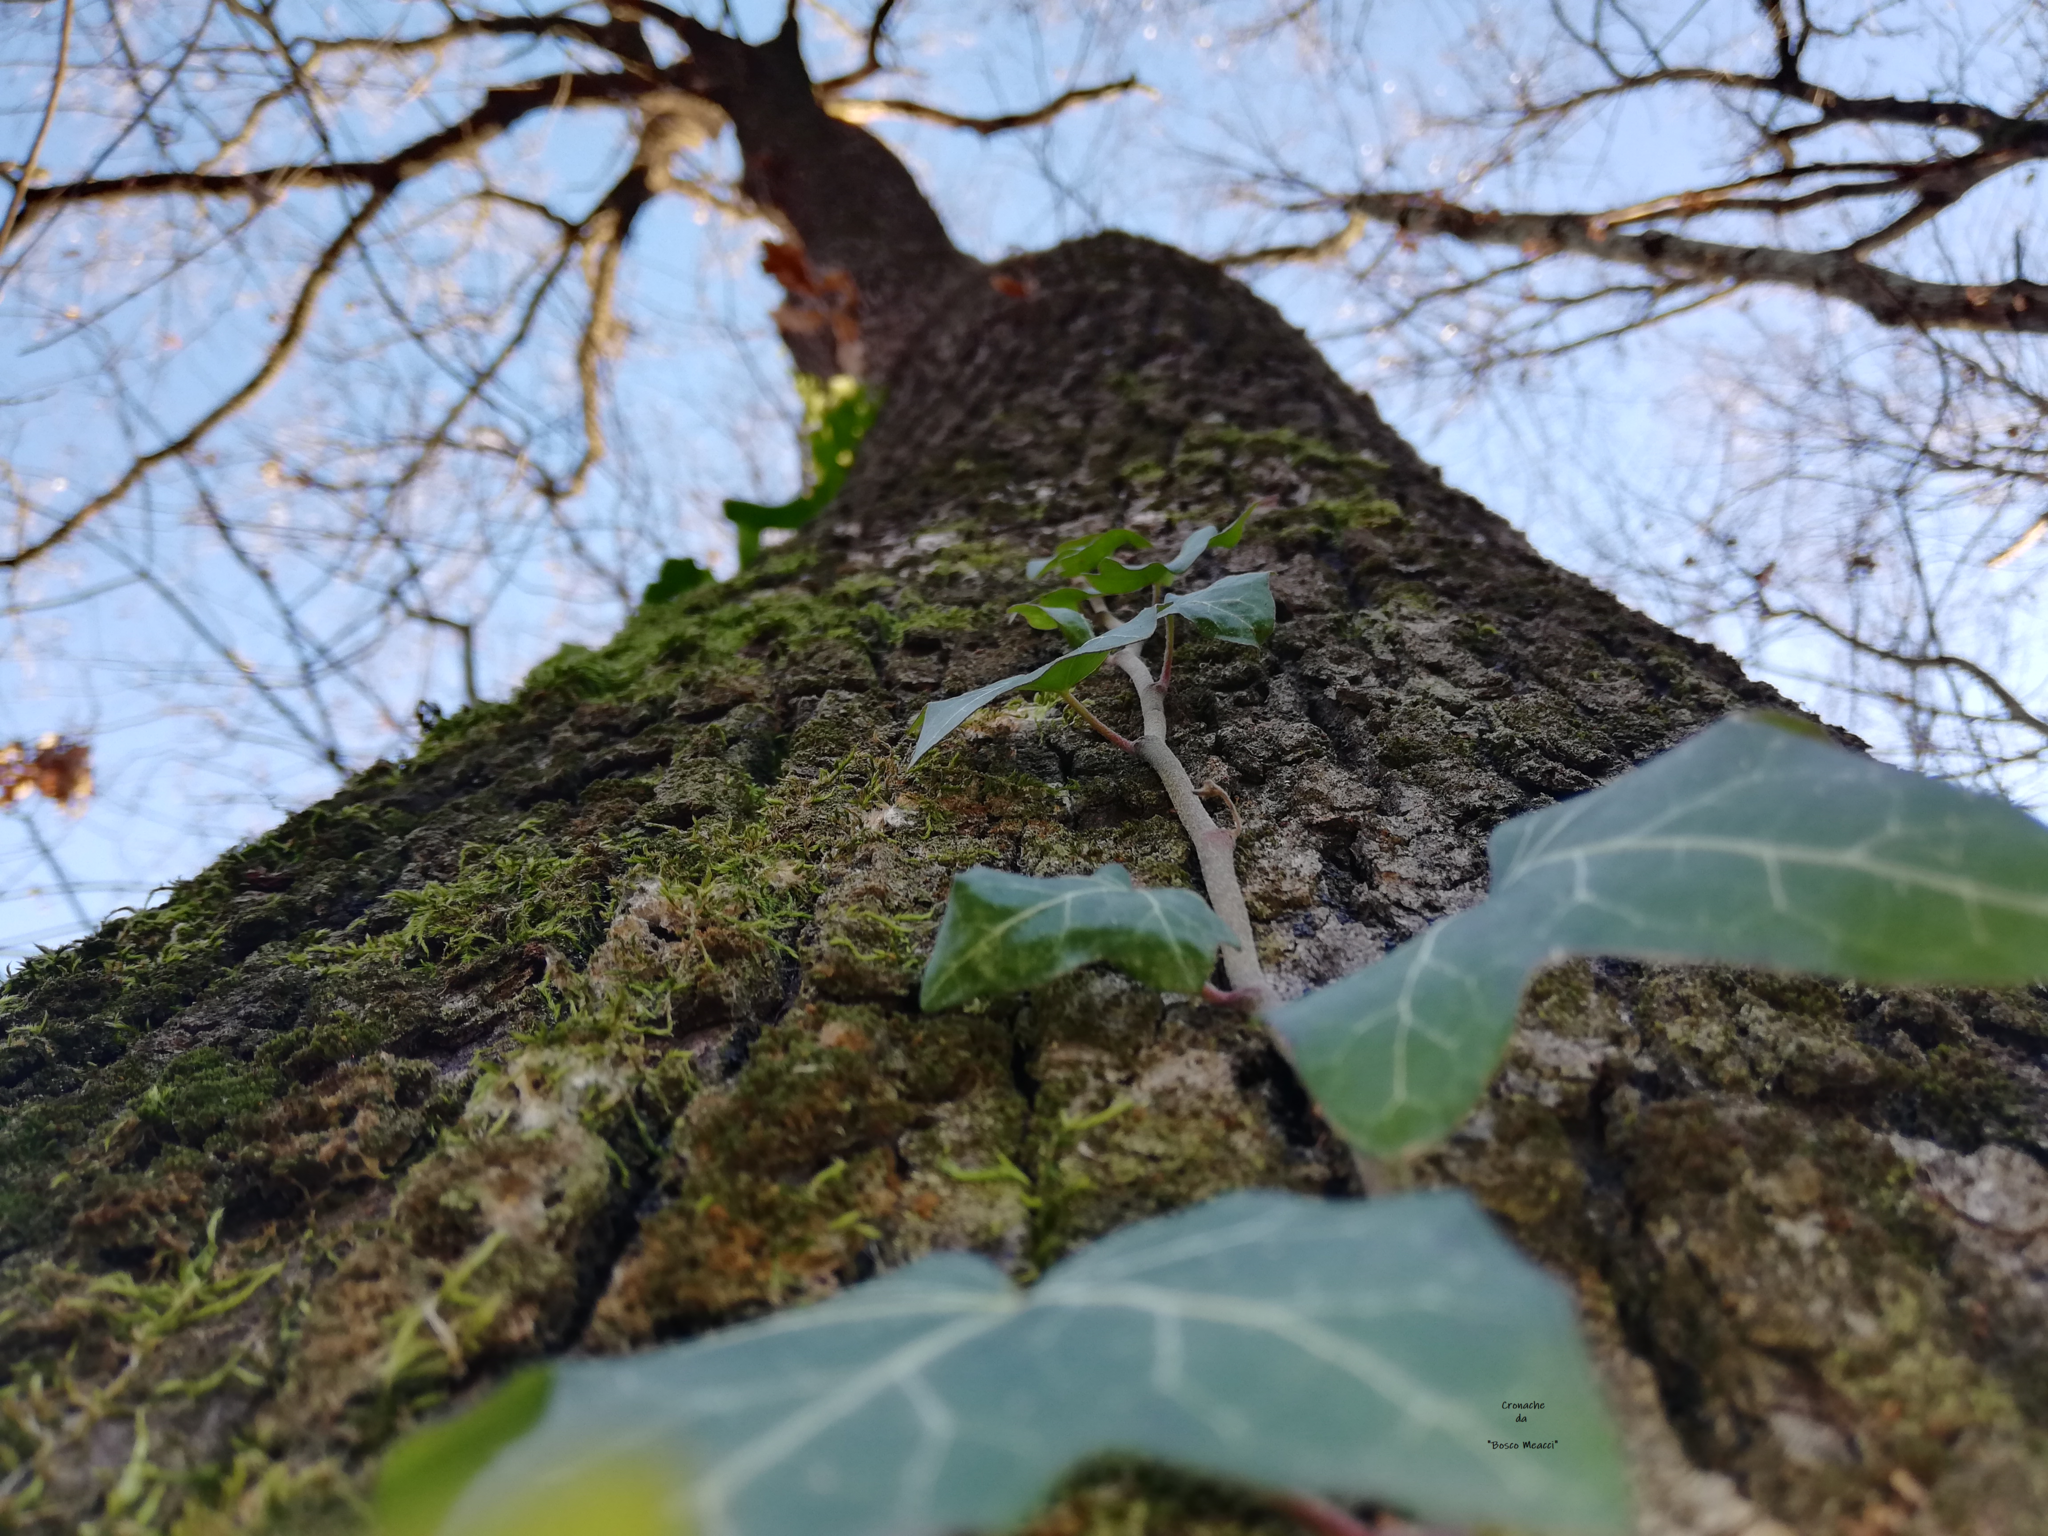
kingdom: Plantae
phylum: Tracheophyta
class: Magnoliopsida
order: Apiales
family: Araliaceae
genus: Hedera
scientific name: Hedera helix
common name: Ivy
